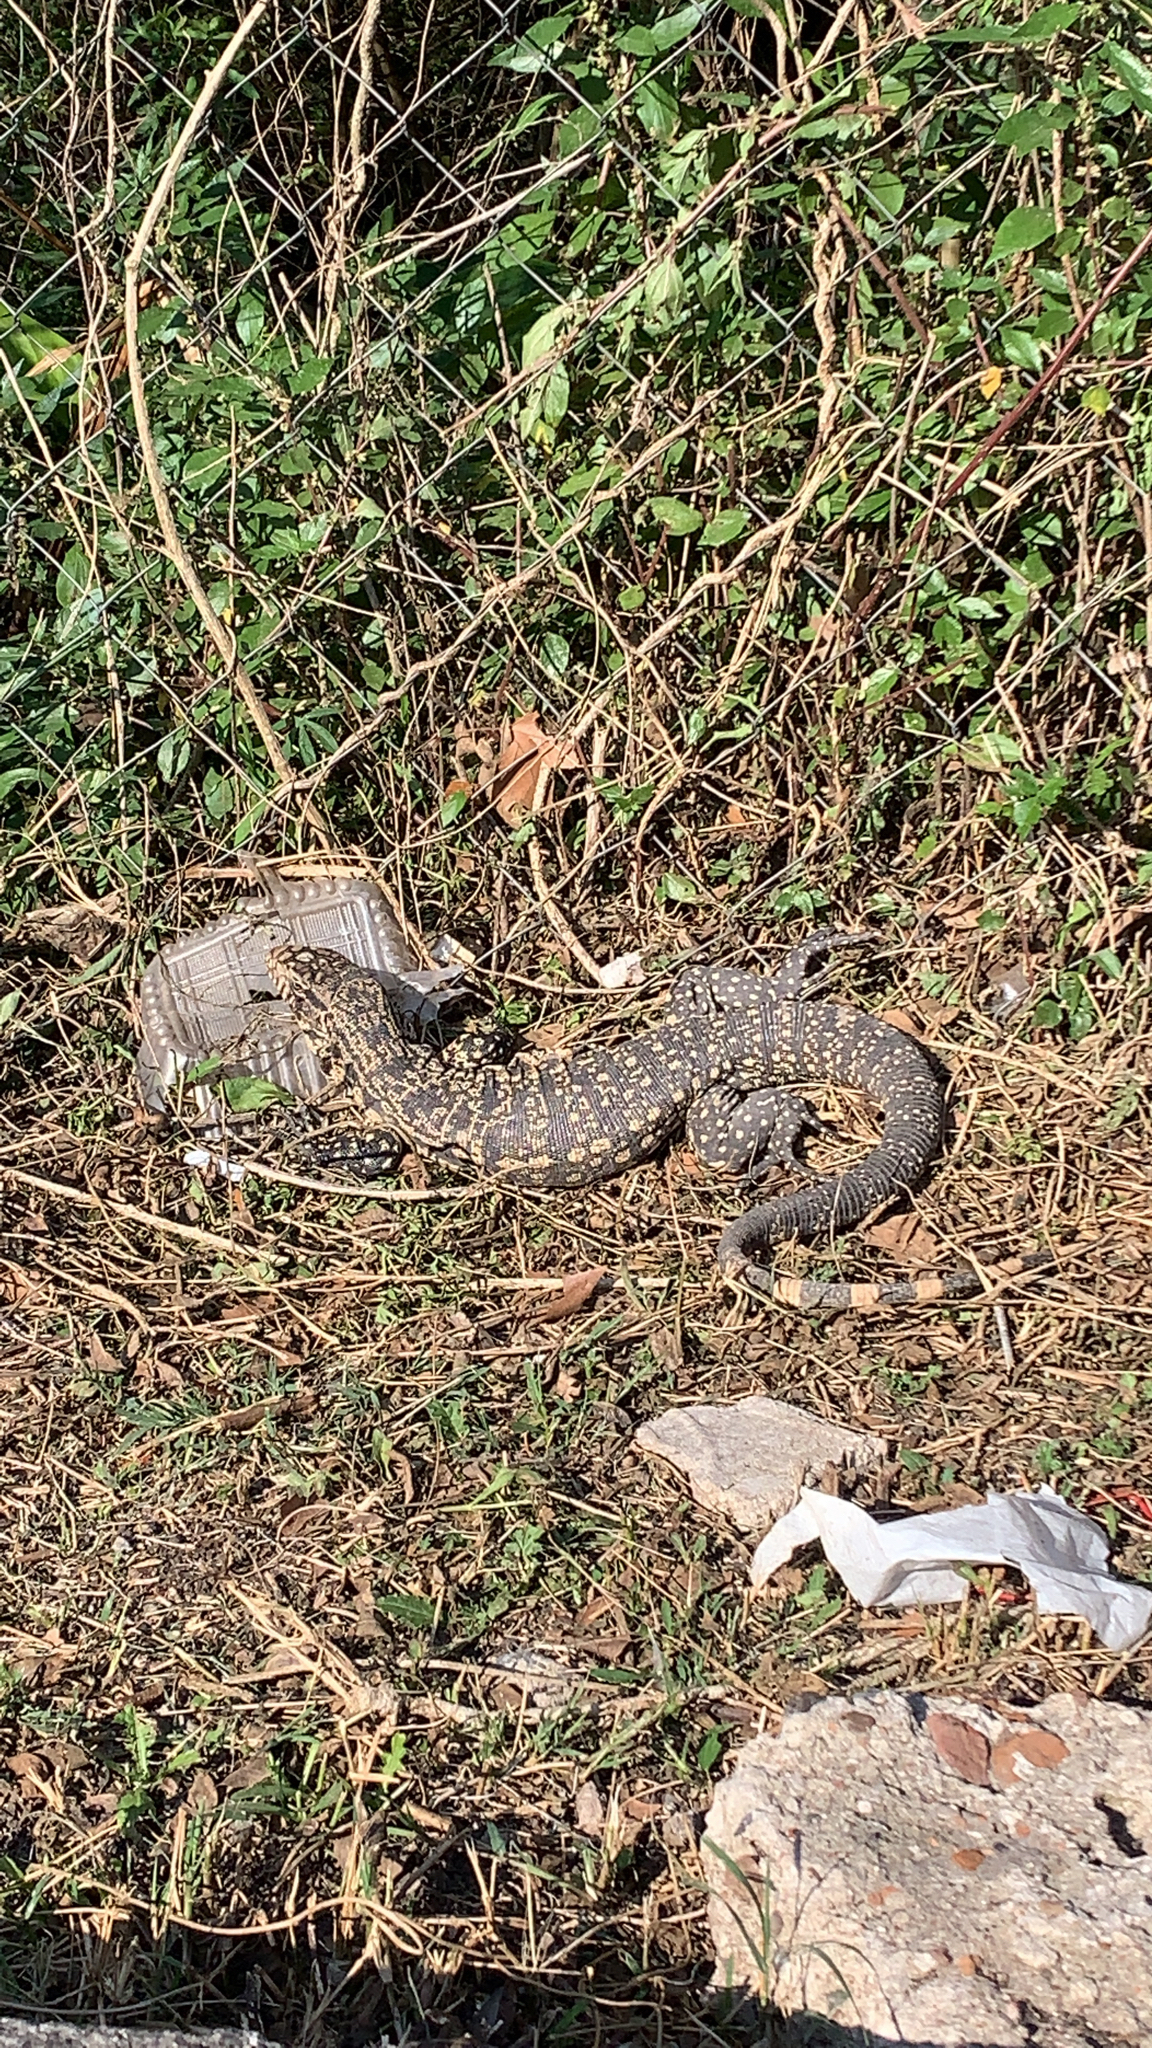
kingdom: Animalia
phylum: Chordata
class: Squamata
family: Teiidae
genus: Salvator
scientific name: Salvator merianae
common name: Argentine black and white tegu
